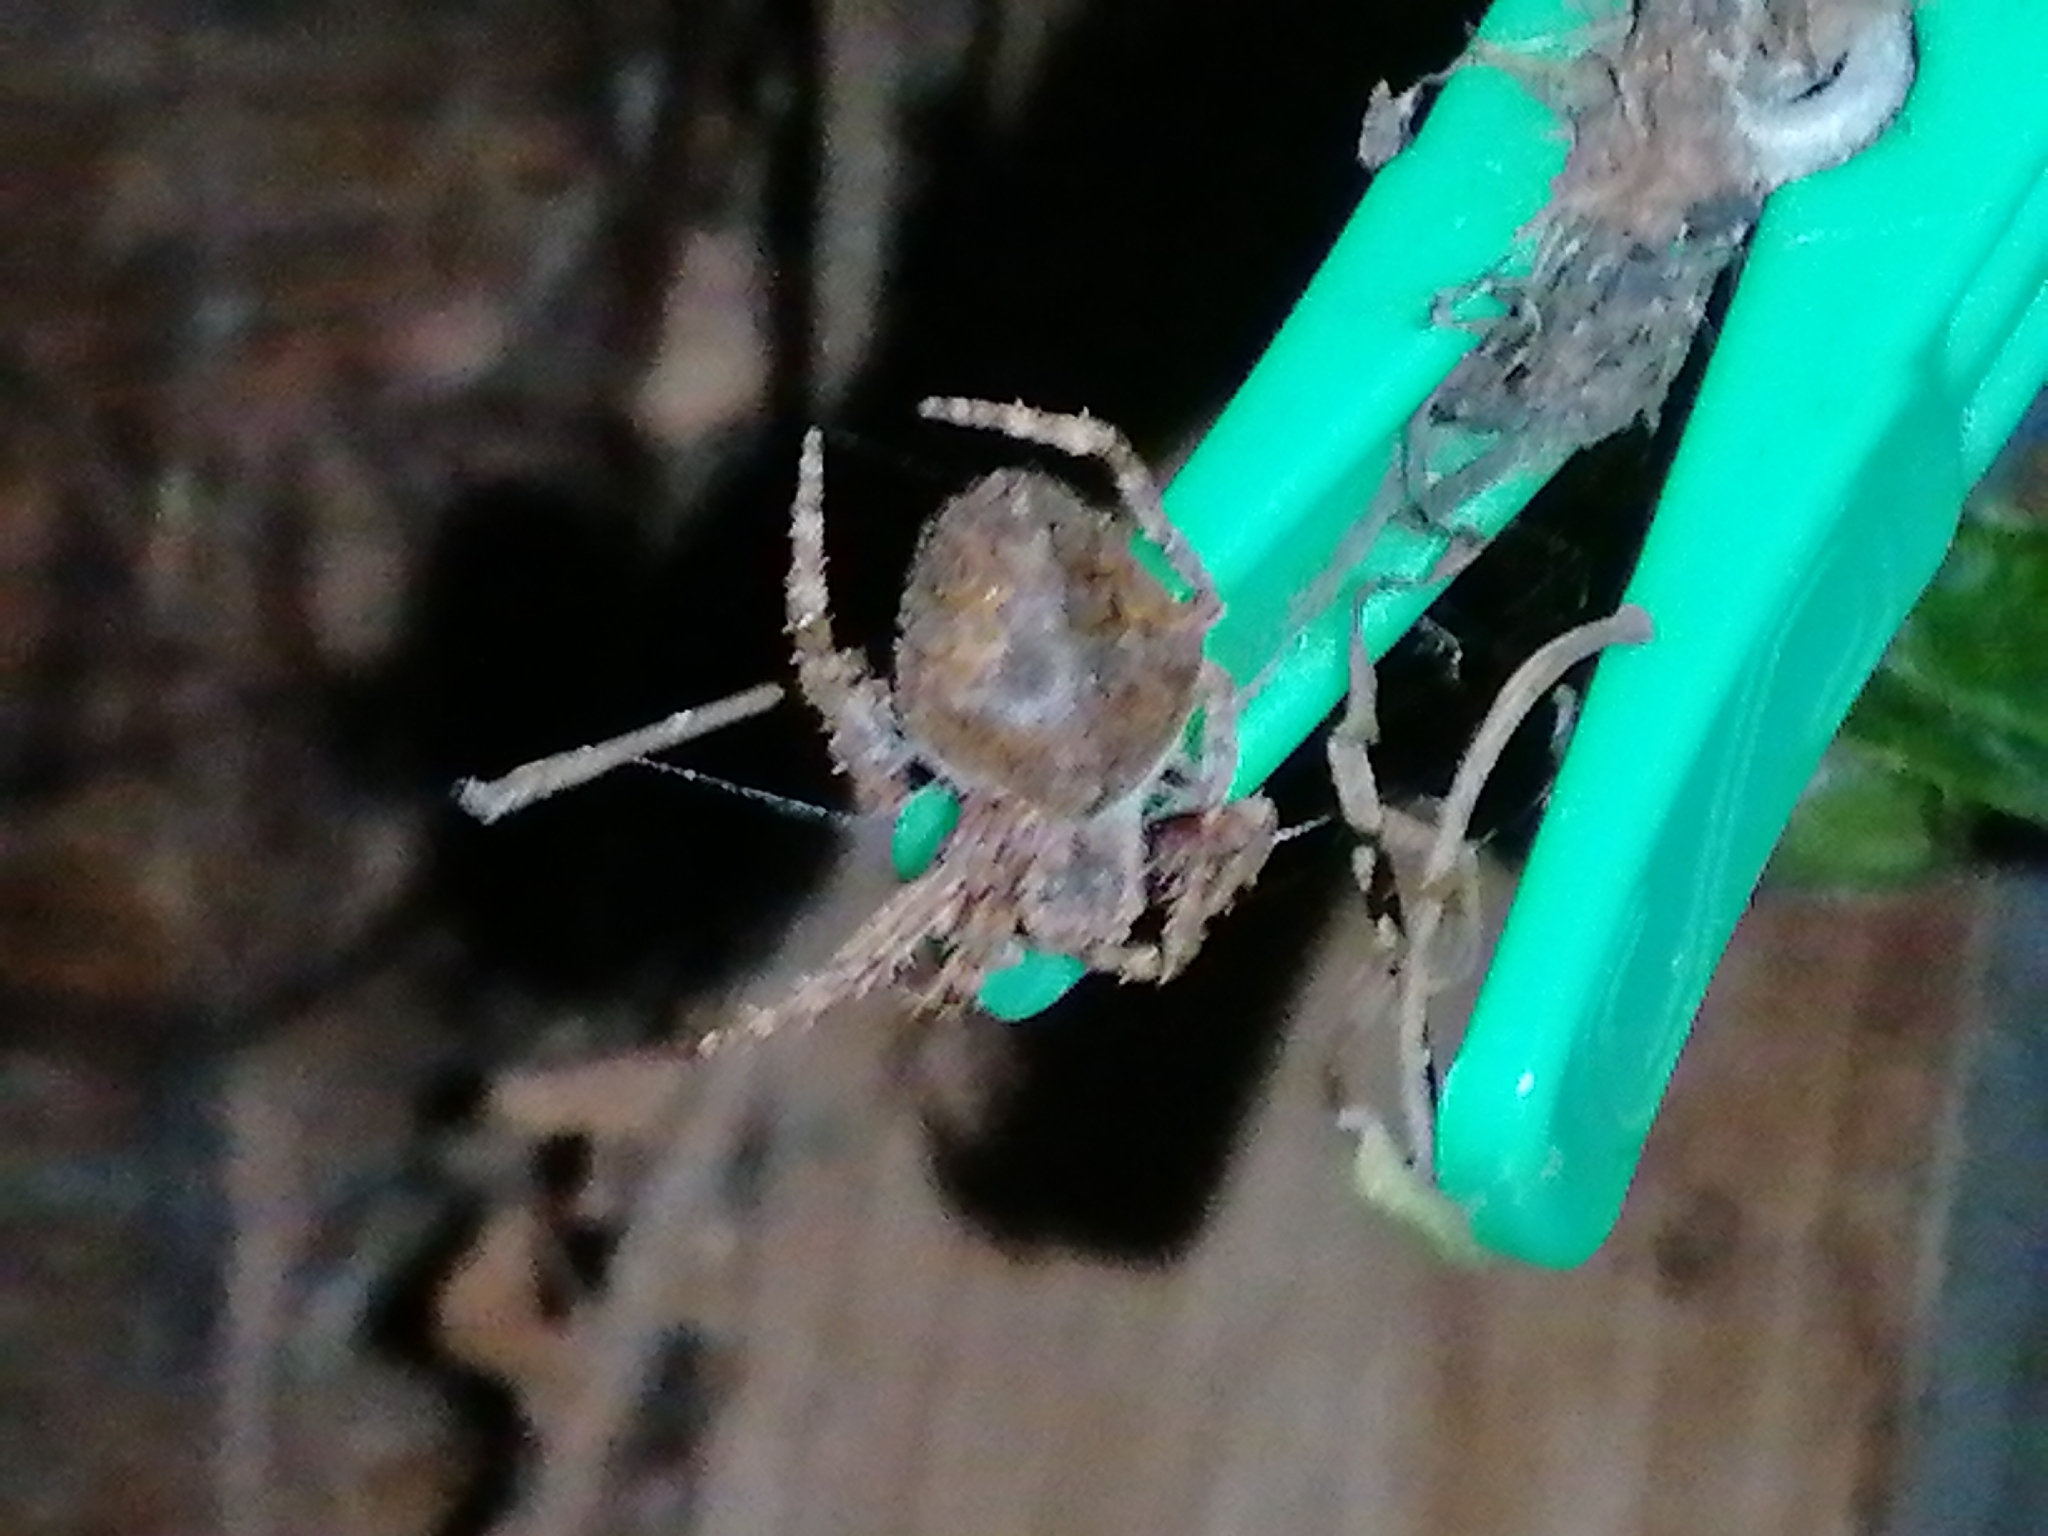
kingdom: Animalia
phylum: Arthropoda
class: Arachnida
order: Araneae
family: Araneidae
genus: Eriophora
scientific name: Eriophora pustulosa
